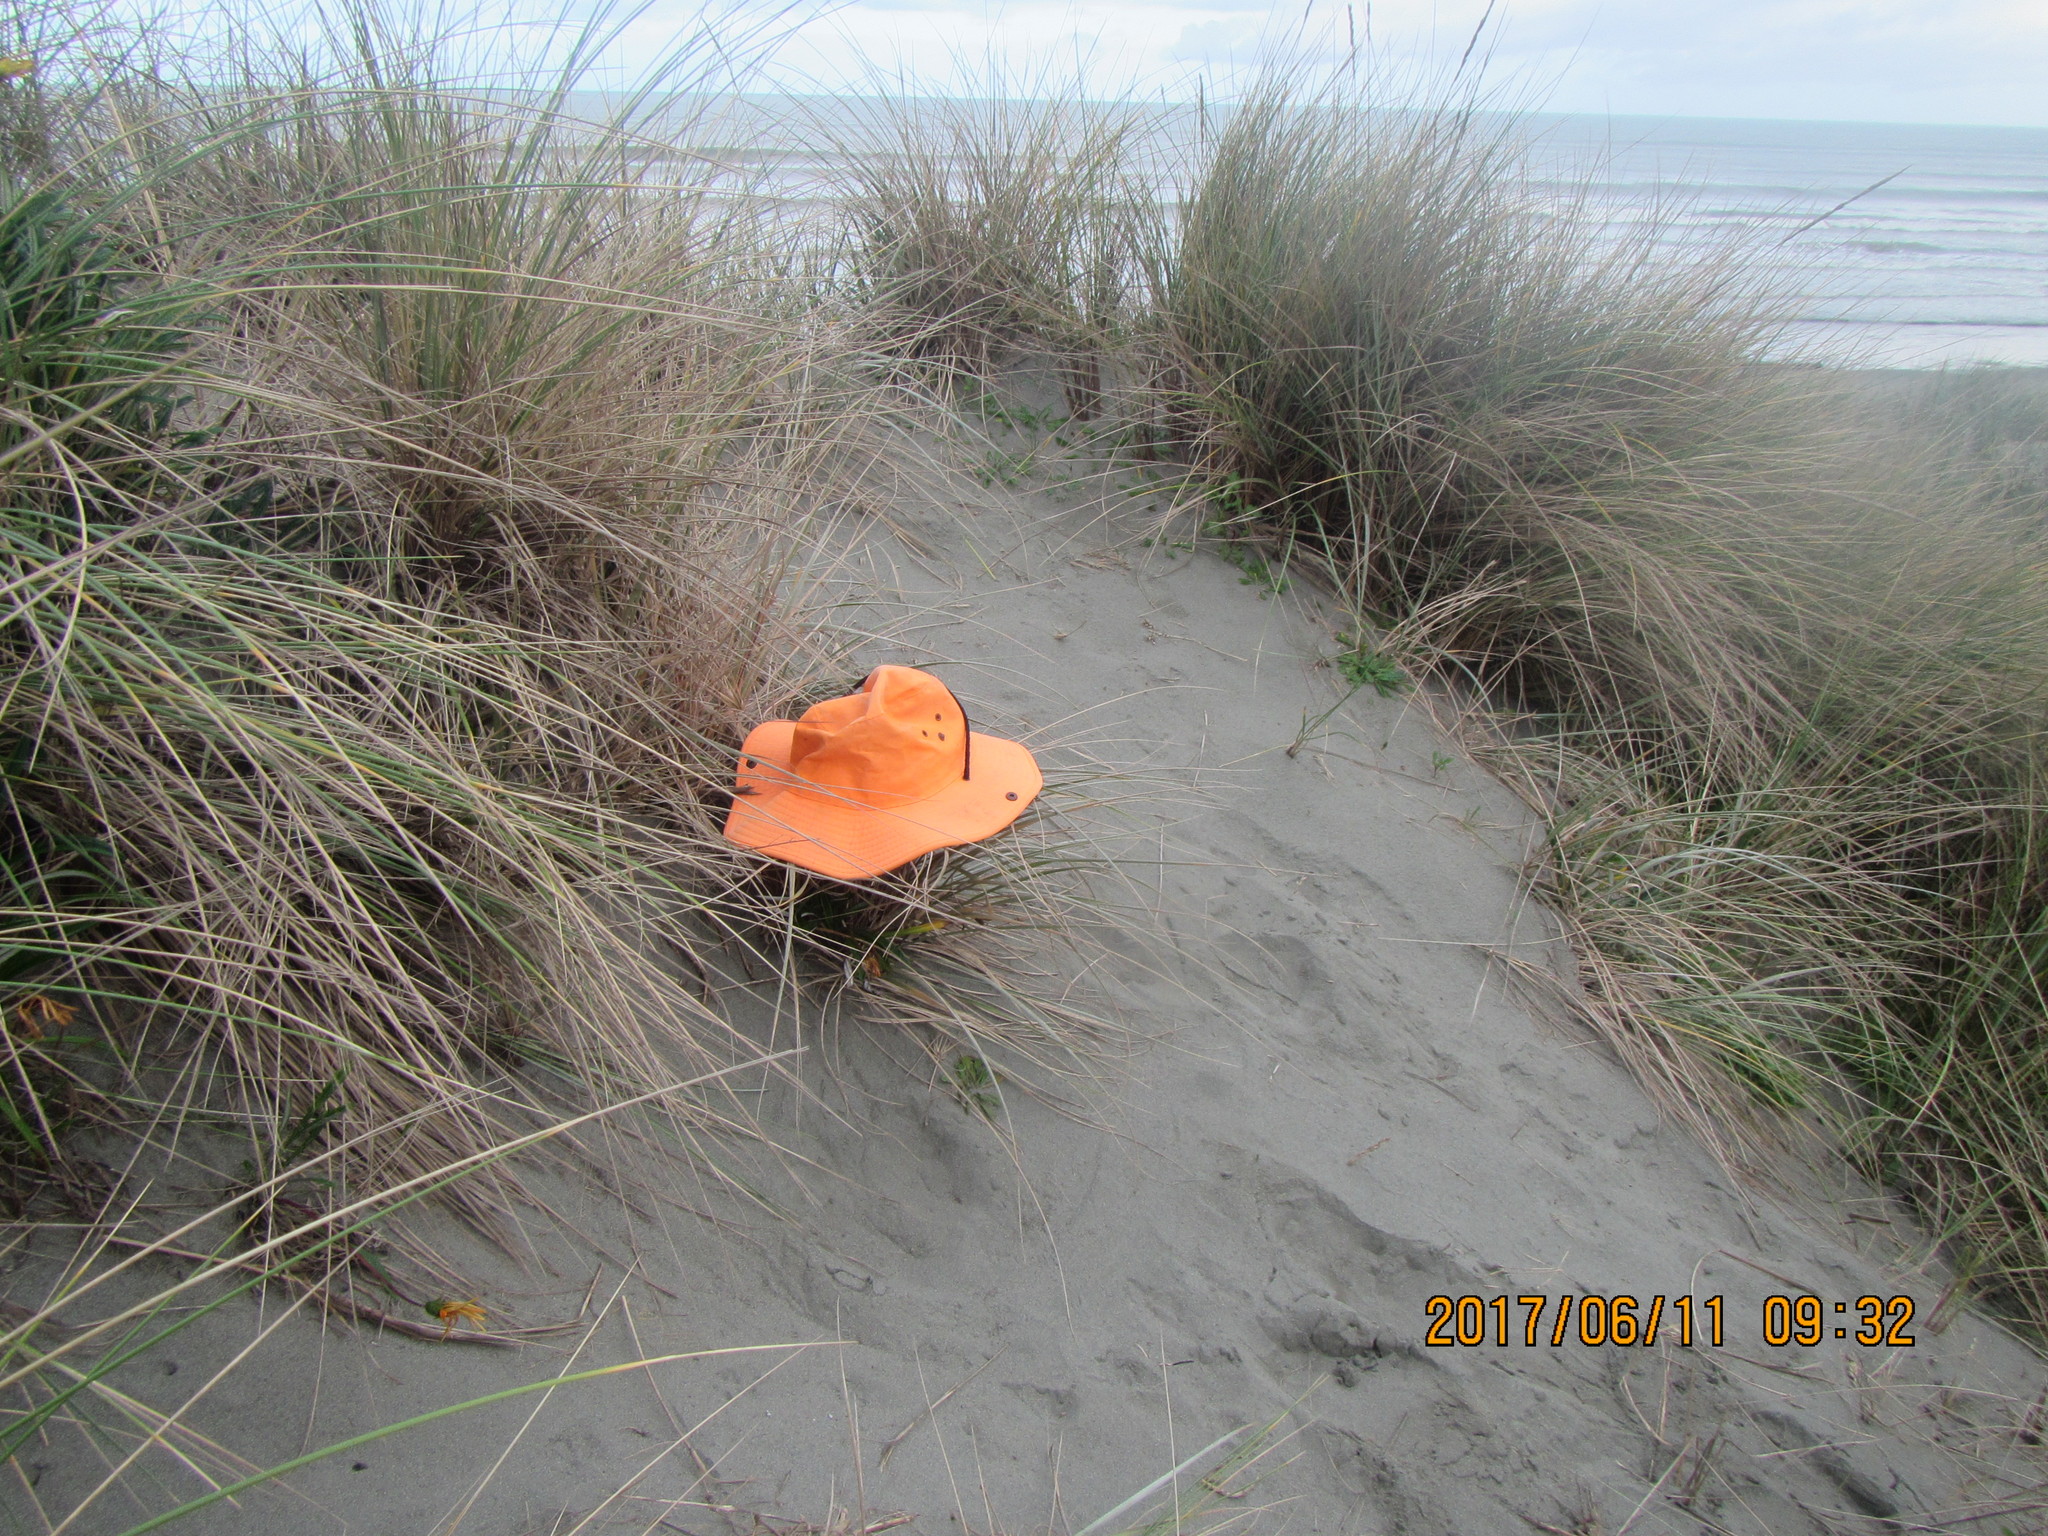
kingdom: Animalia
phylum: Arthropoda
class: Arachnida
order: Araneae
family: Gnaphosidae
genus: Scotophaeus
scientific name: Scotophaeus pretiosus
